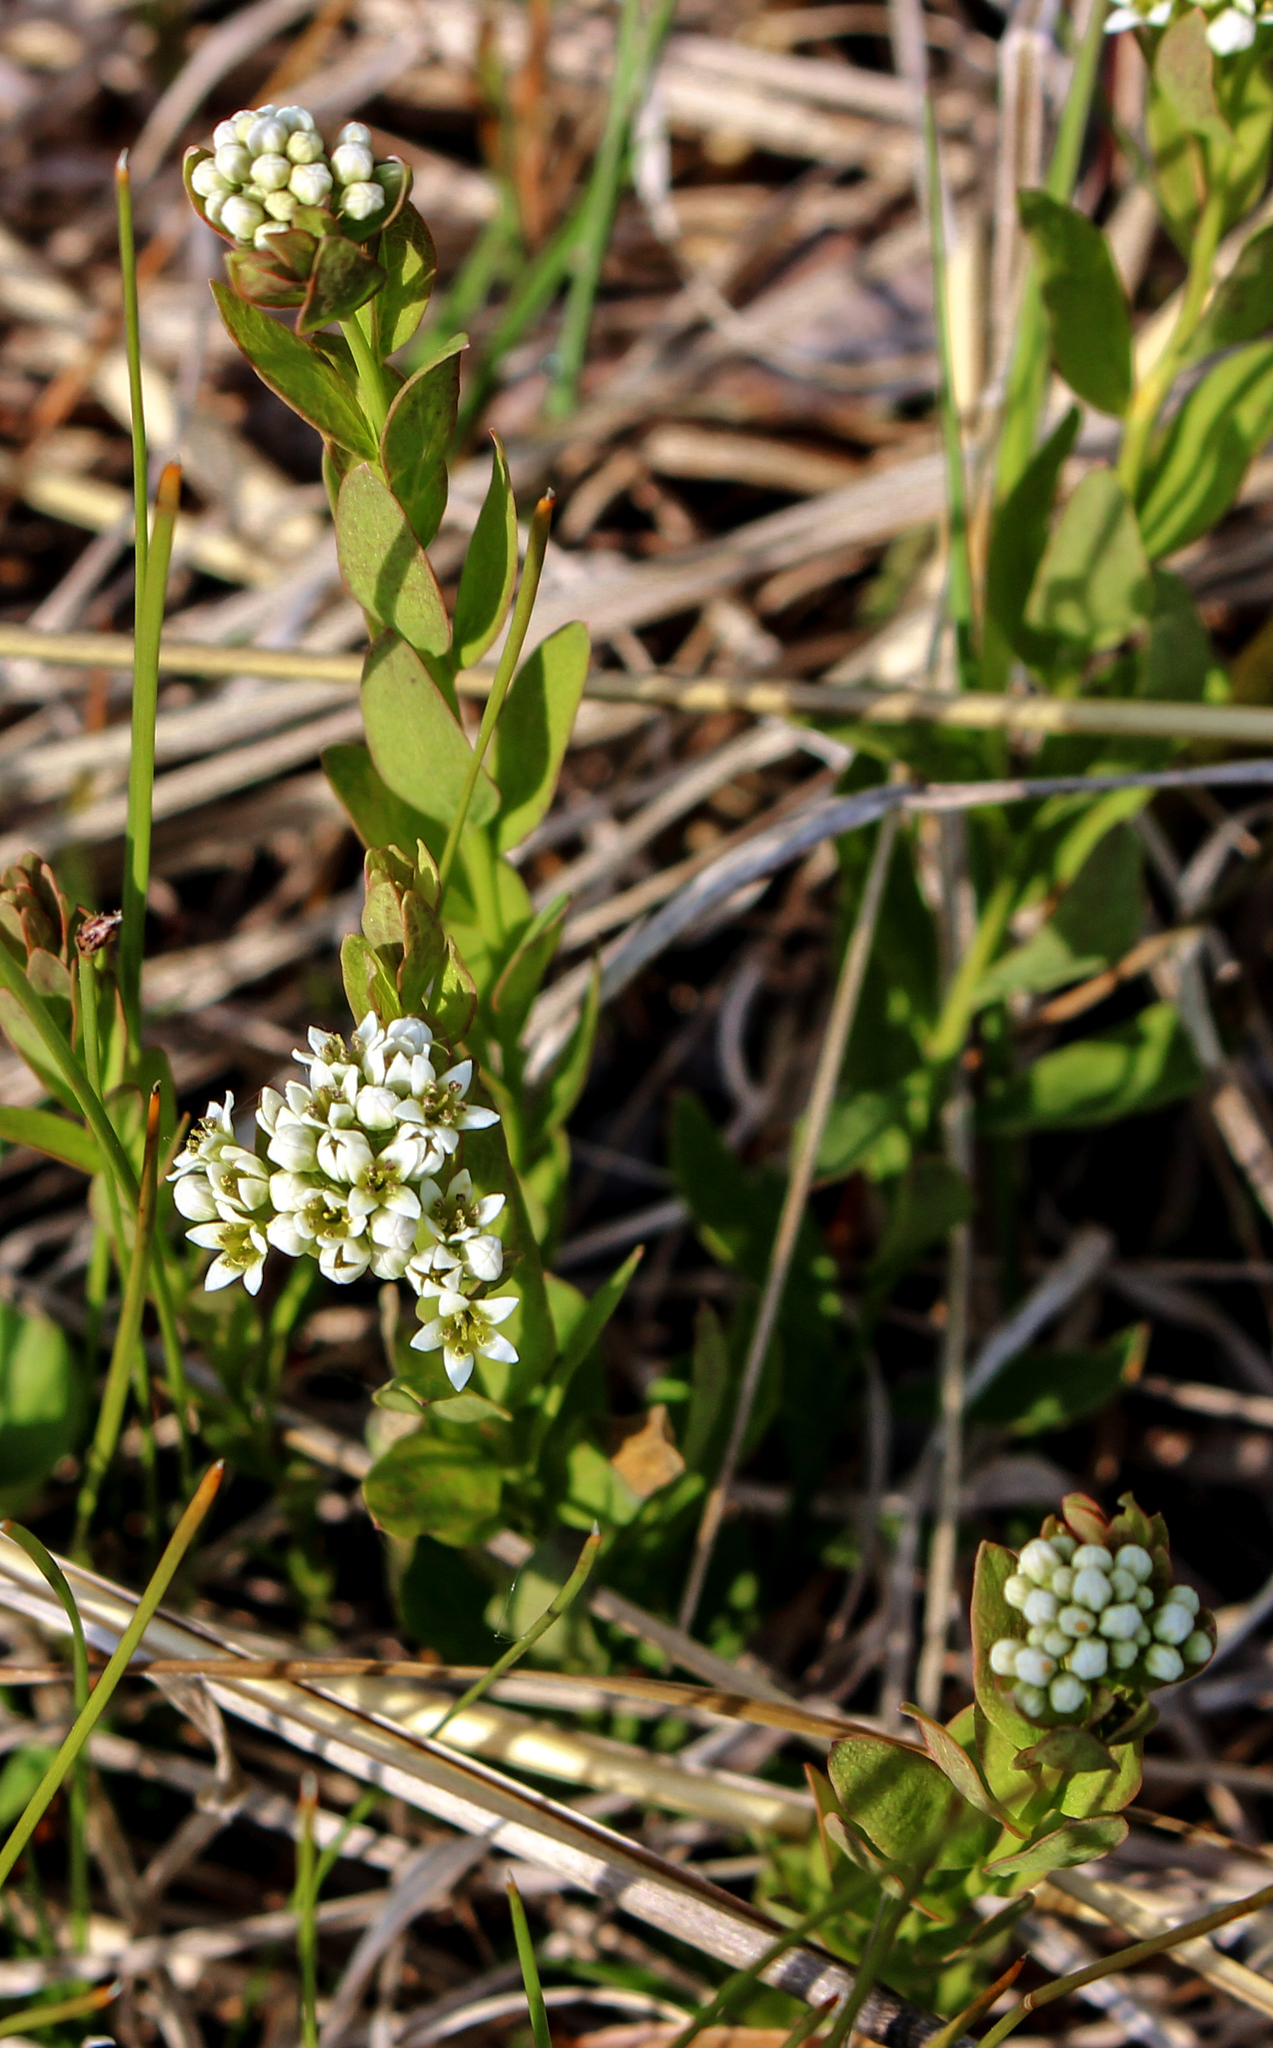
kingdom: Plantae
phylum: Tracheophyta
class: Magnoliopsida
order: Santalales
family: Comandraceae
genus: Comandra
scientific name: Comandra umbellata
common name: Bastard toadflax
